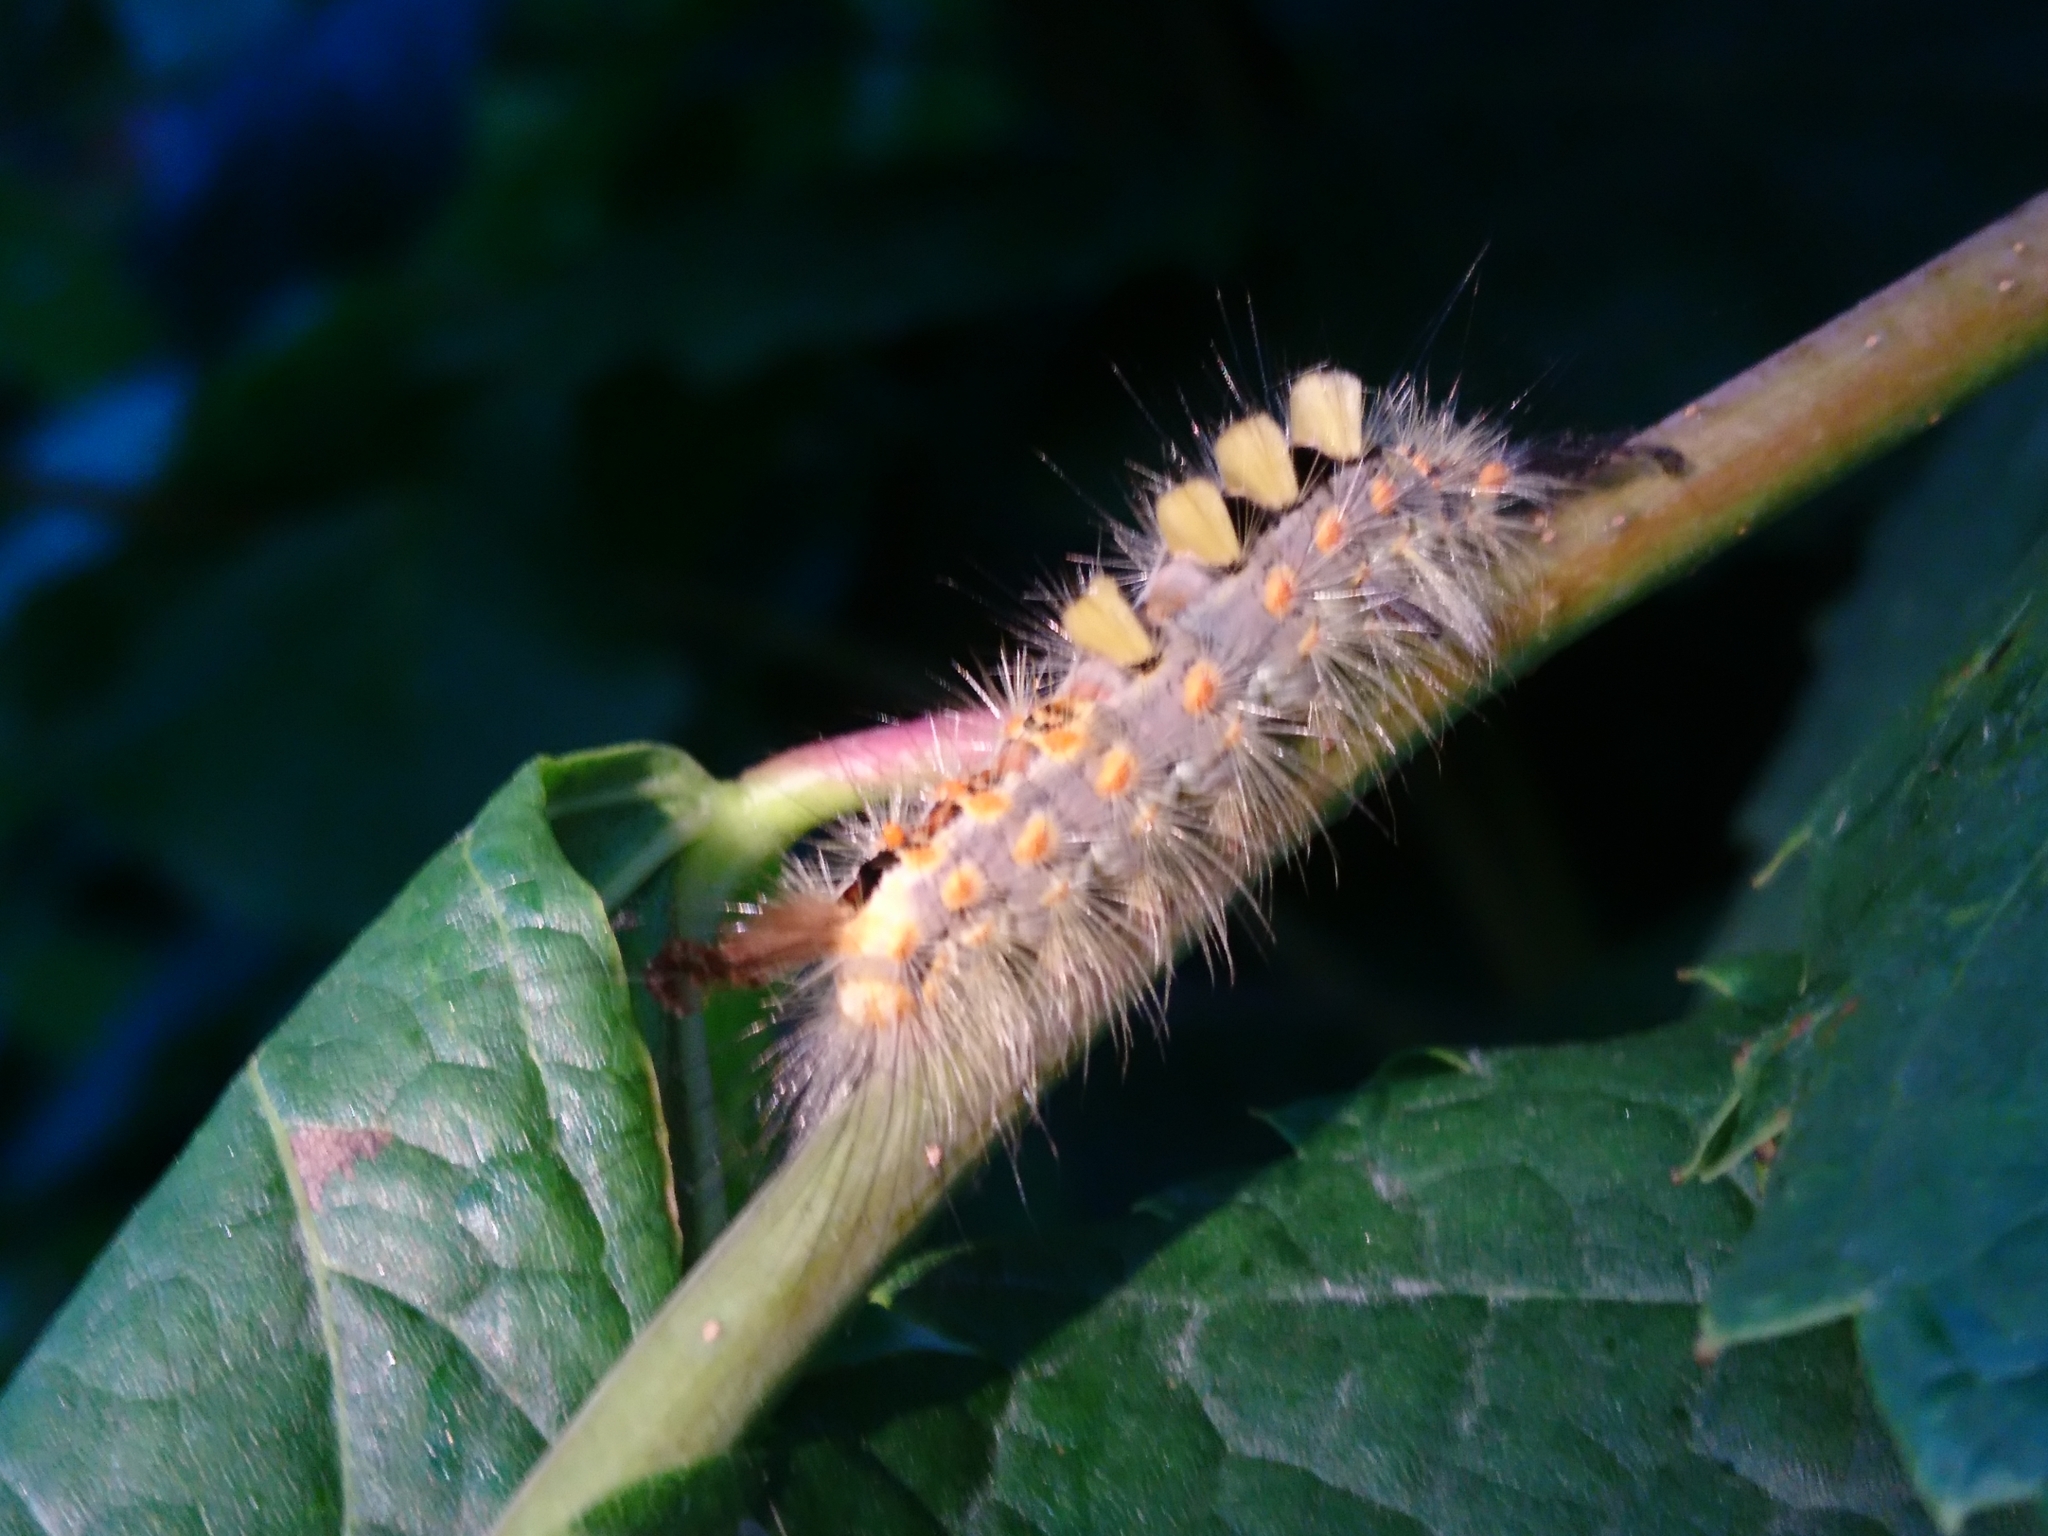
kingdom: Animalia
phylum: Arthropoda
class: Insecta
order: Lepidoptera
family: Erebidae
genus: Orgyia
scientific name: Orgyia antiqua
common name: Vapourer
